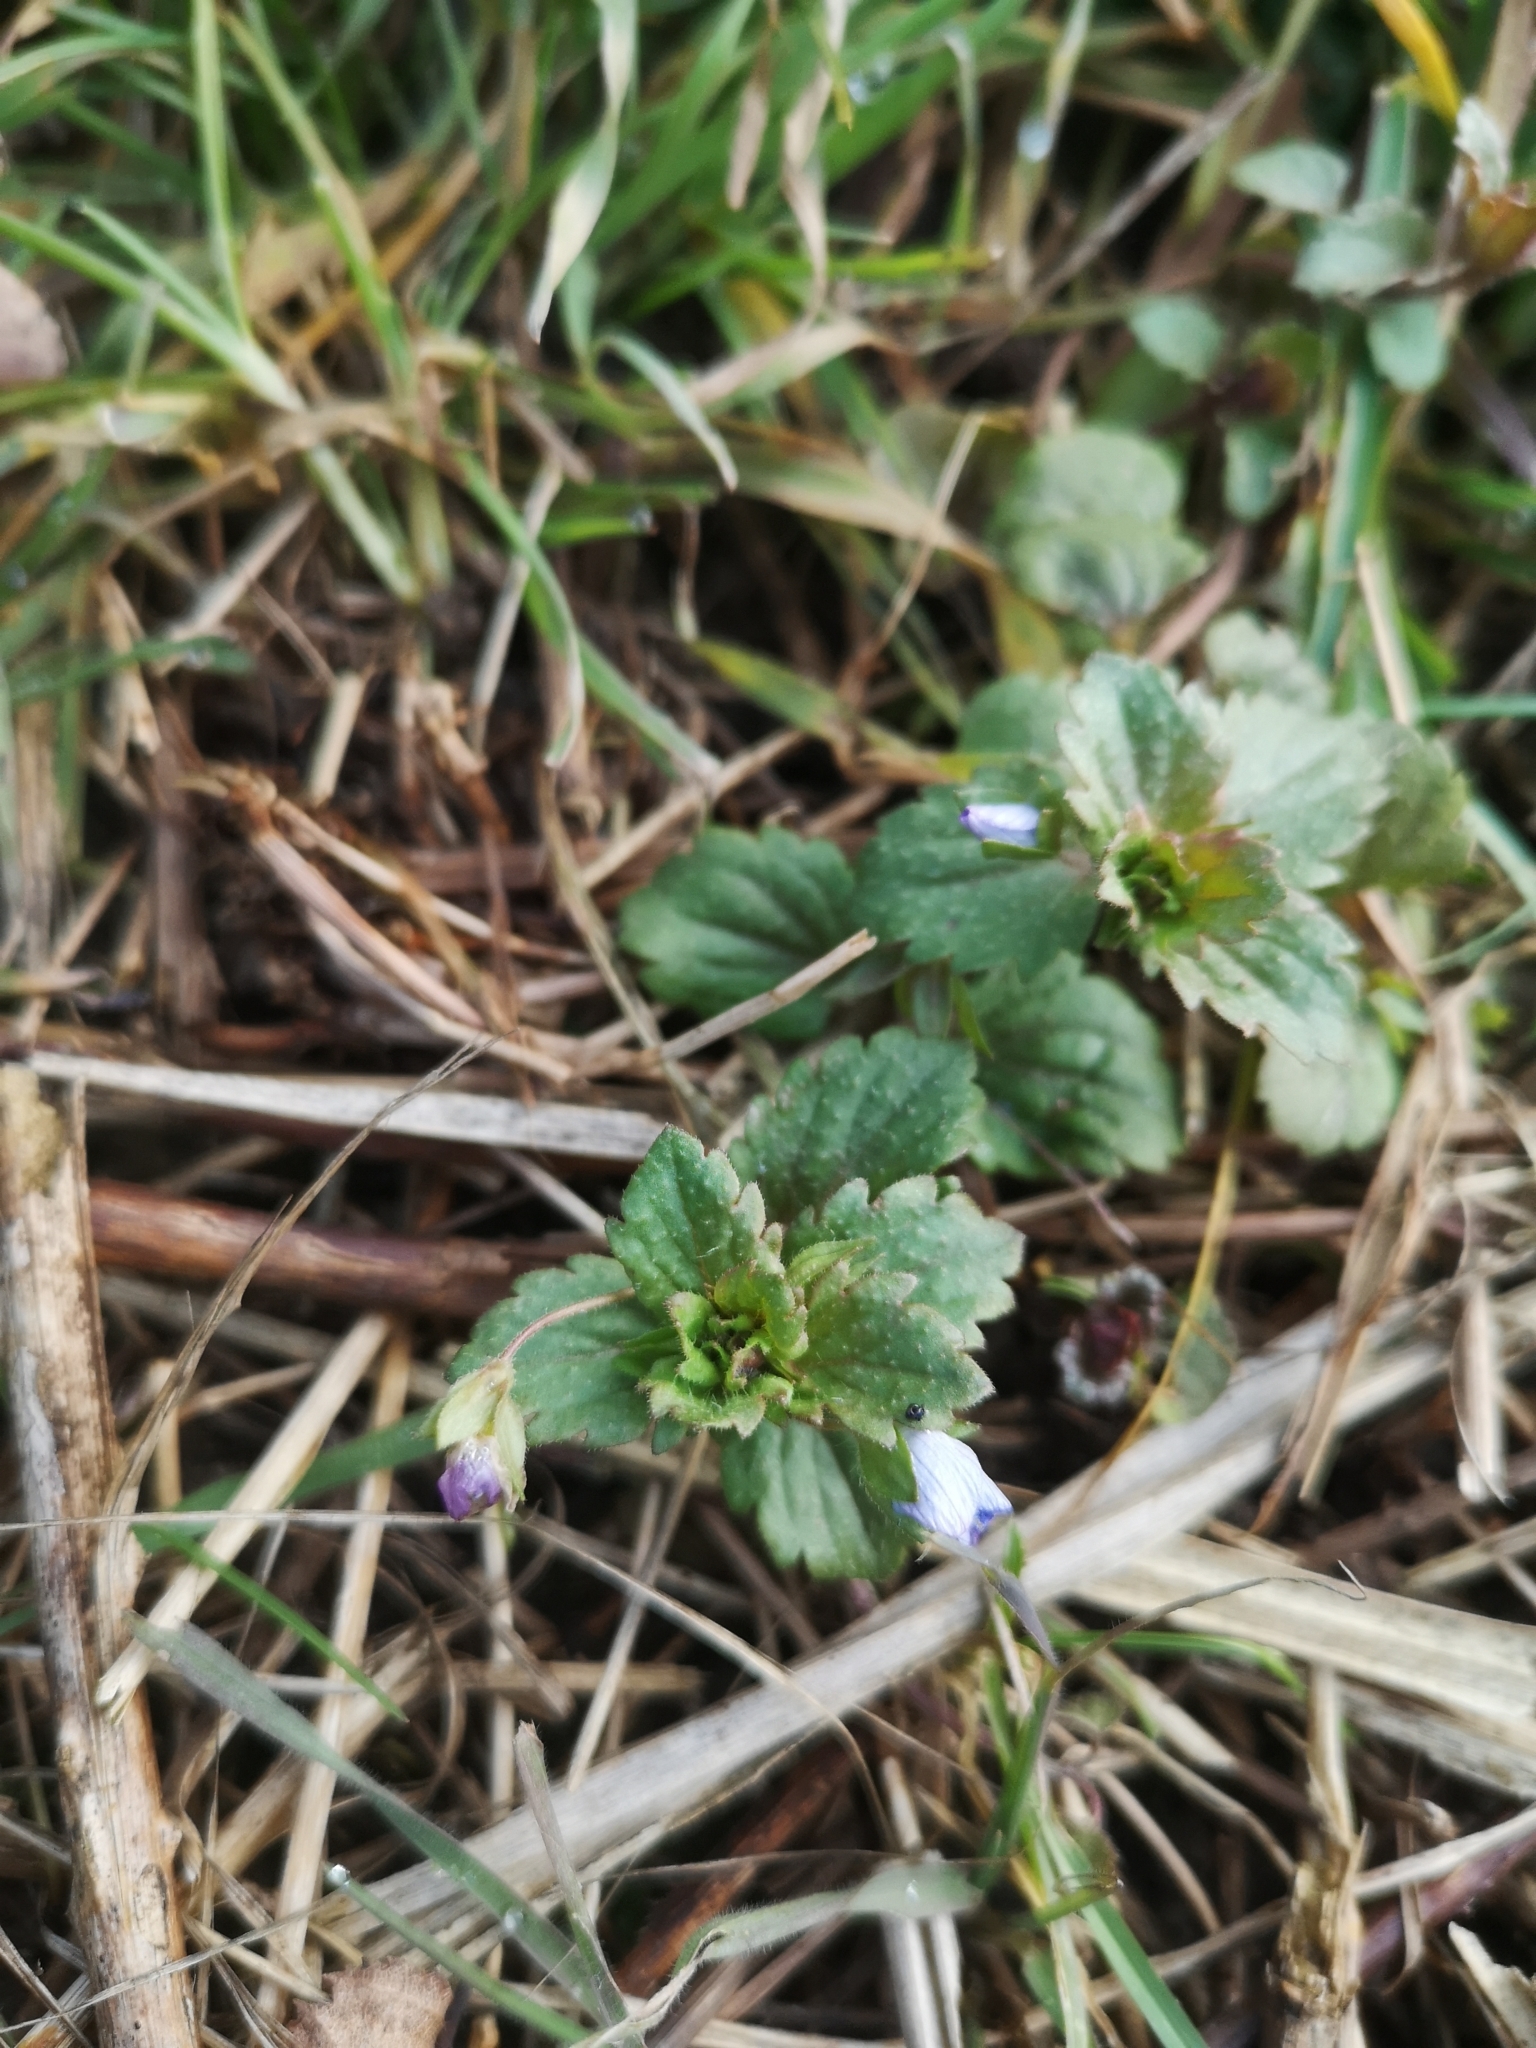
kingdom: Plantae
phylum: Tracheophyta
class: Magnoliopsida
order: Lamiales
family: Plantaginaceae
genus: Veronica
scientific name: Veronica persica
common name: Common field-speedwell
